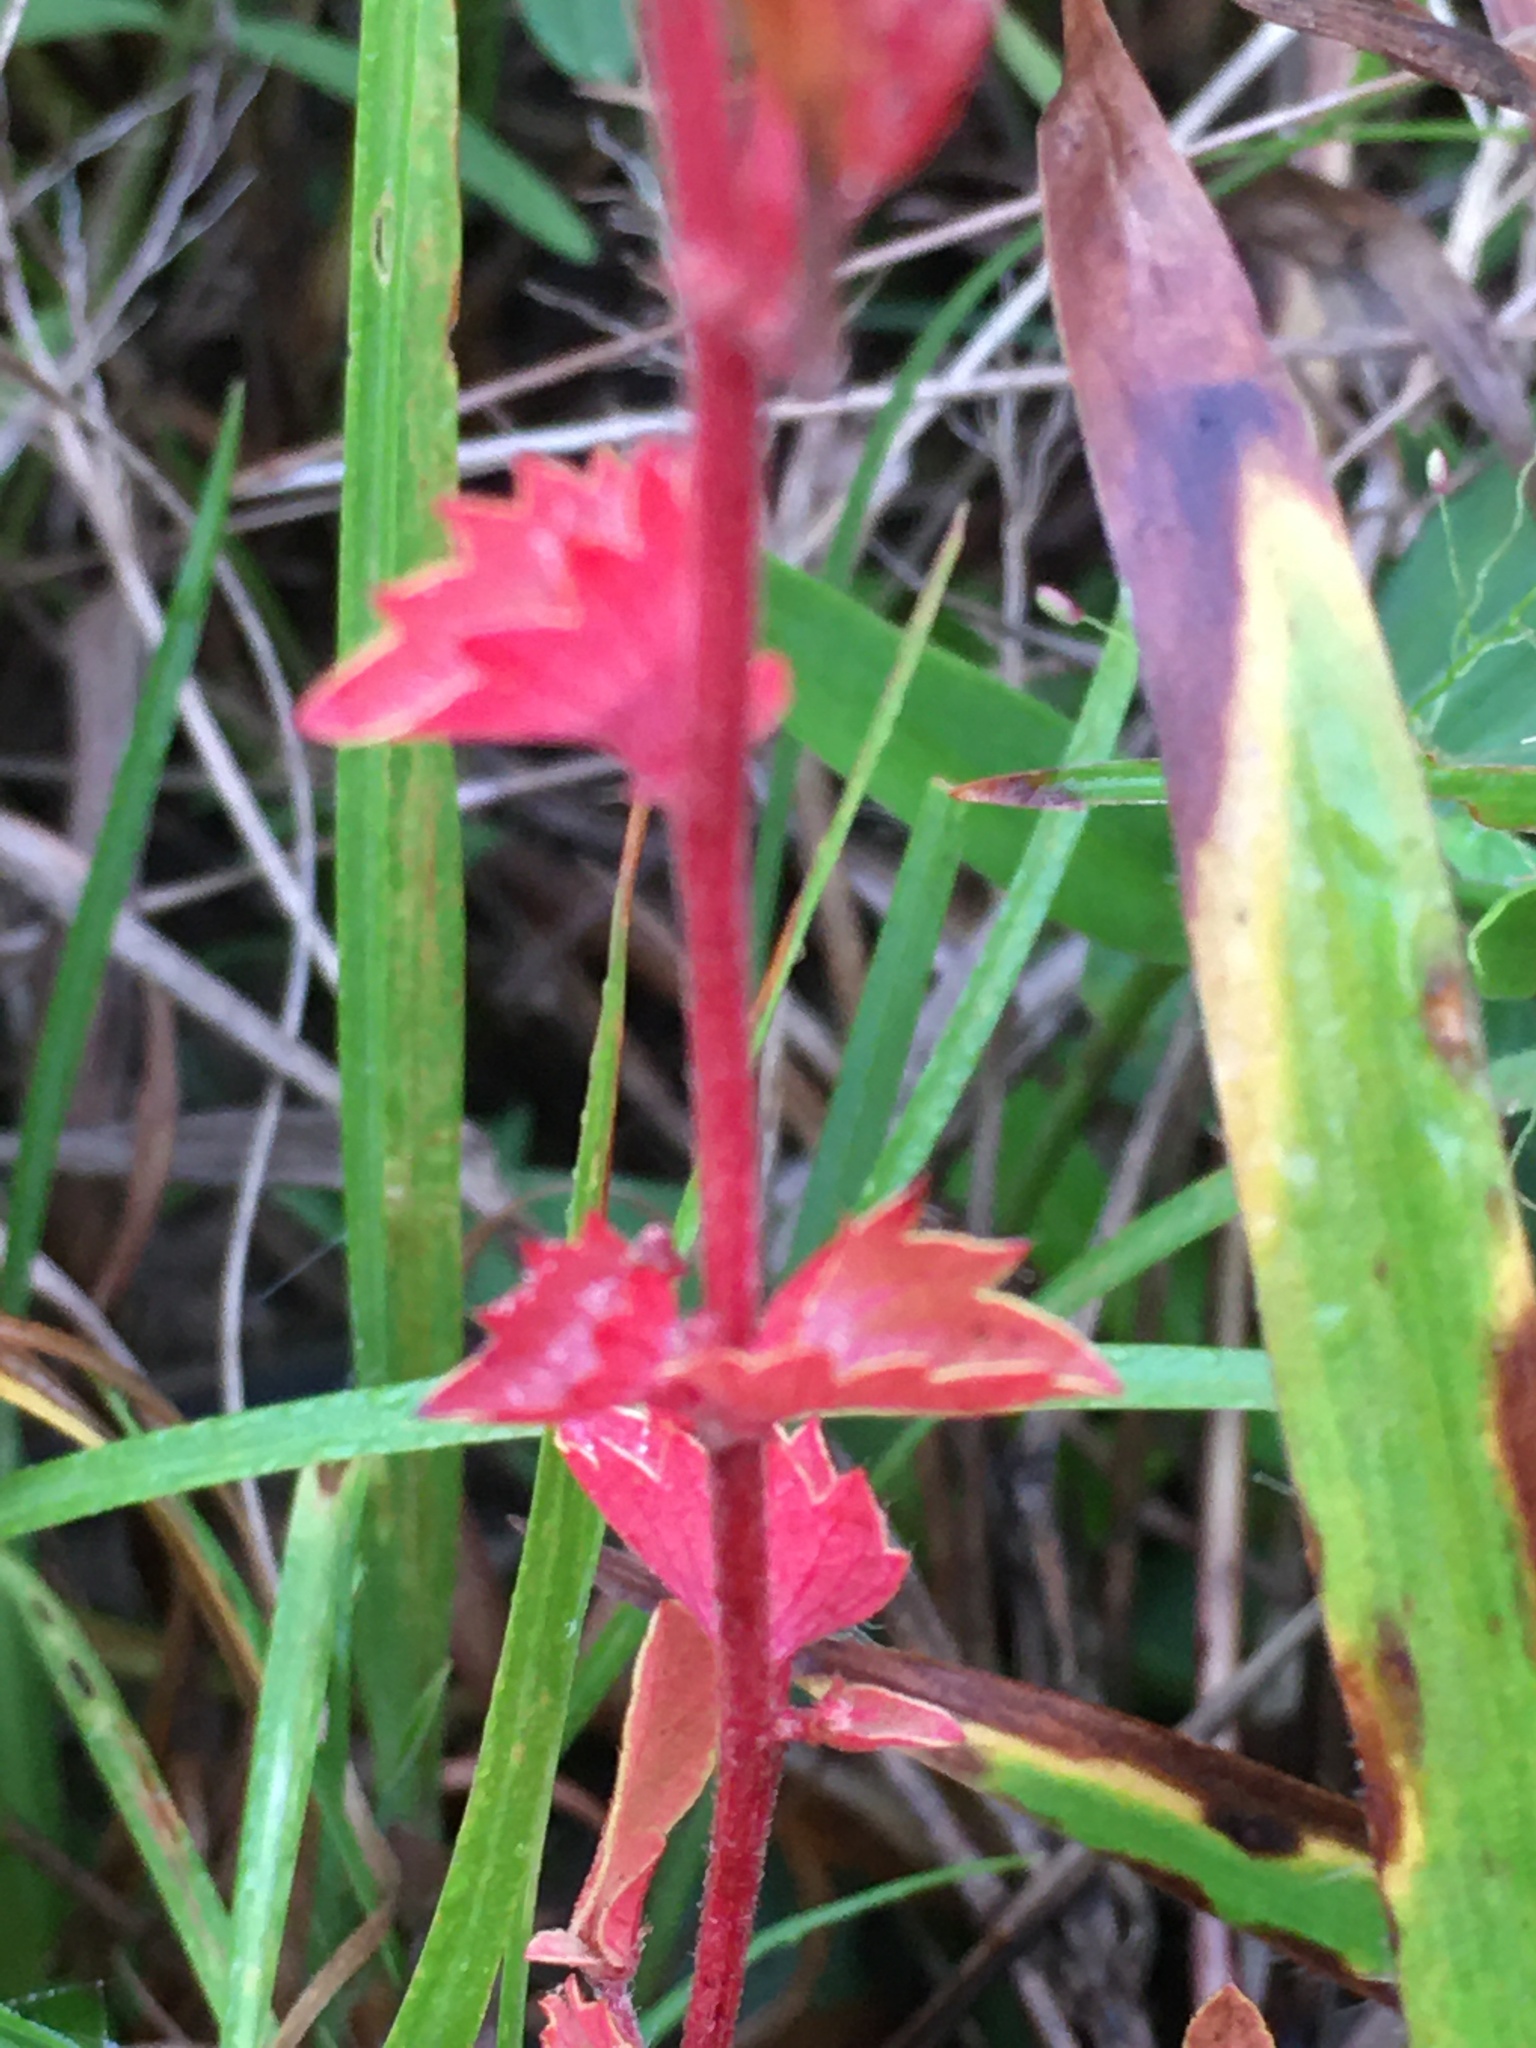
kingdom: Plantae
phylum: Tracheophyta
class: Magnoliopsida
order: Malpighiales
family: Euphorbiaceae
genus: Acalypha
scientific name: Acalypha gracilens
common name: Slender three-seeded mercury
